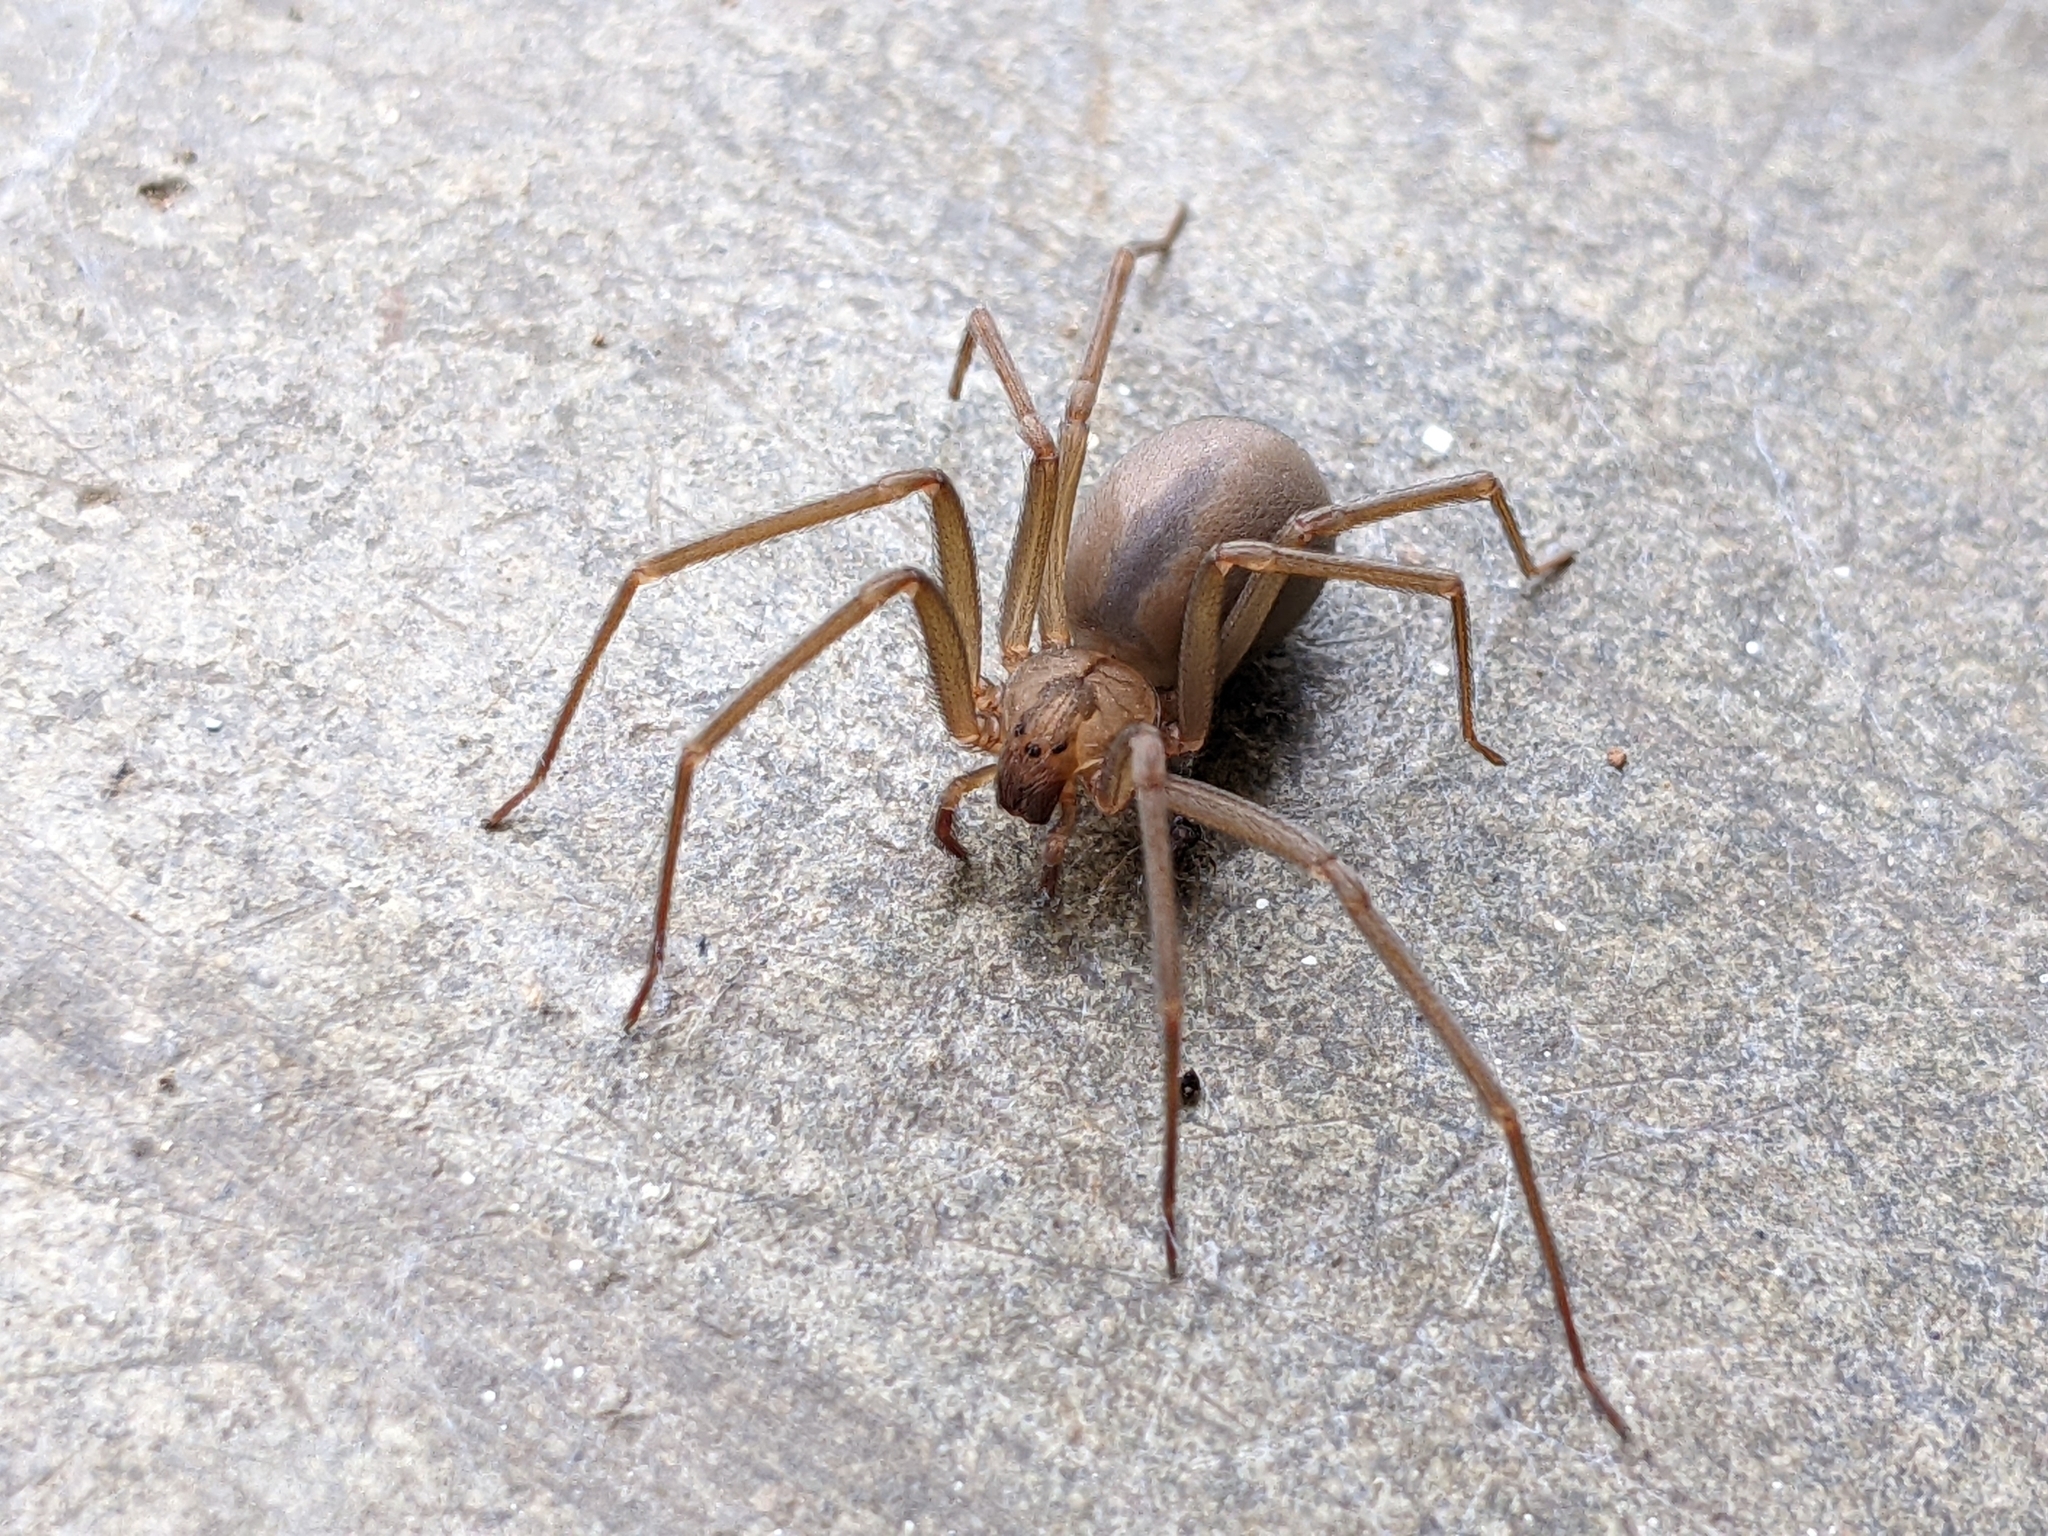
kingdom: Animalia
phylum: Arthropoda
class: Arachnida
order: Araneae
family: Sicariidae
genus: Loxosceles
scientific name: Loxosceles reclusa
